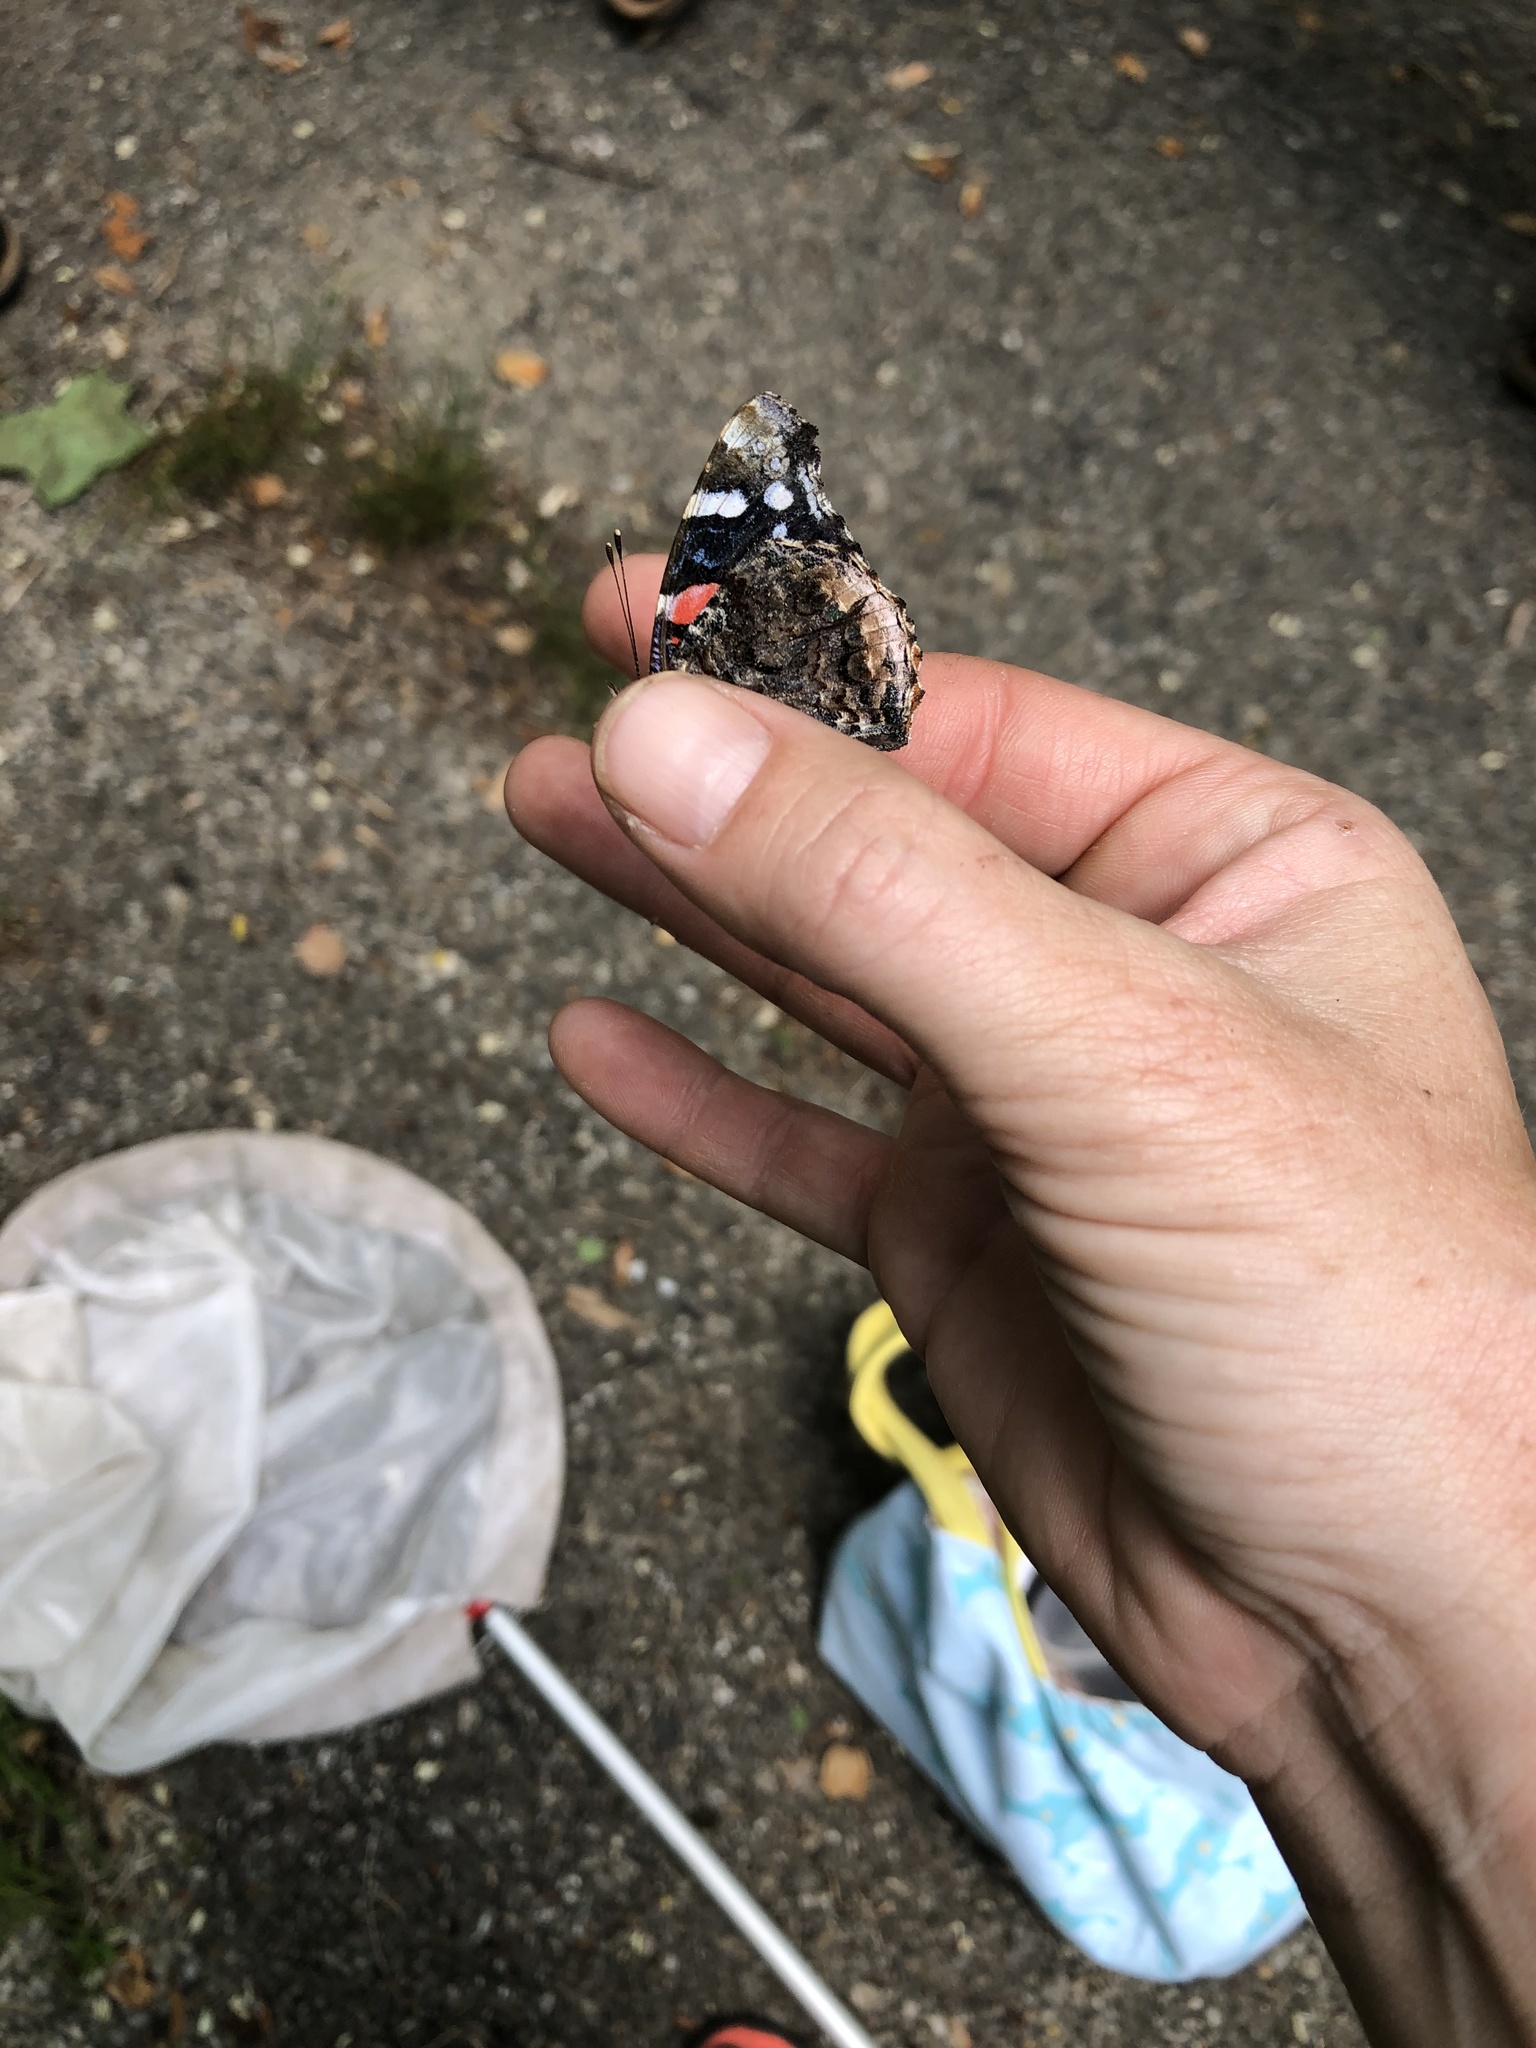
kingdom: Animalia
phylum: Arthropoda
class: Insecta
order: Lepidoptera
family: Nymphalidae
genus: Vanessa
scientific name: Vanessa atalanta
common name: Red admiral
